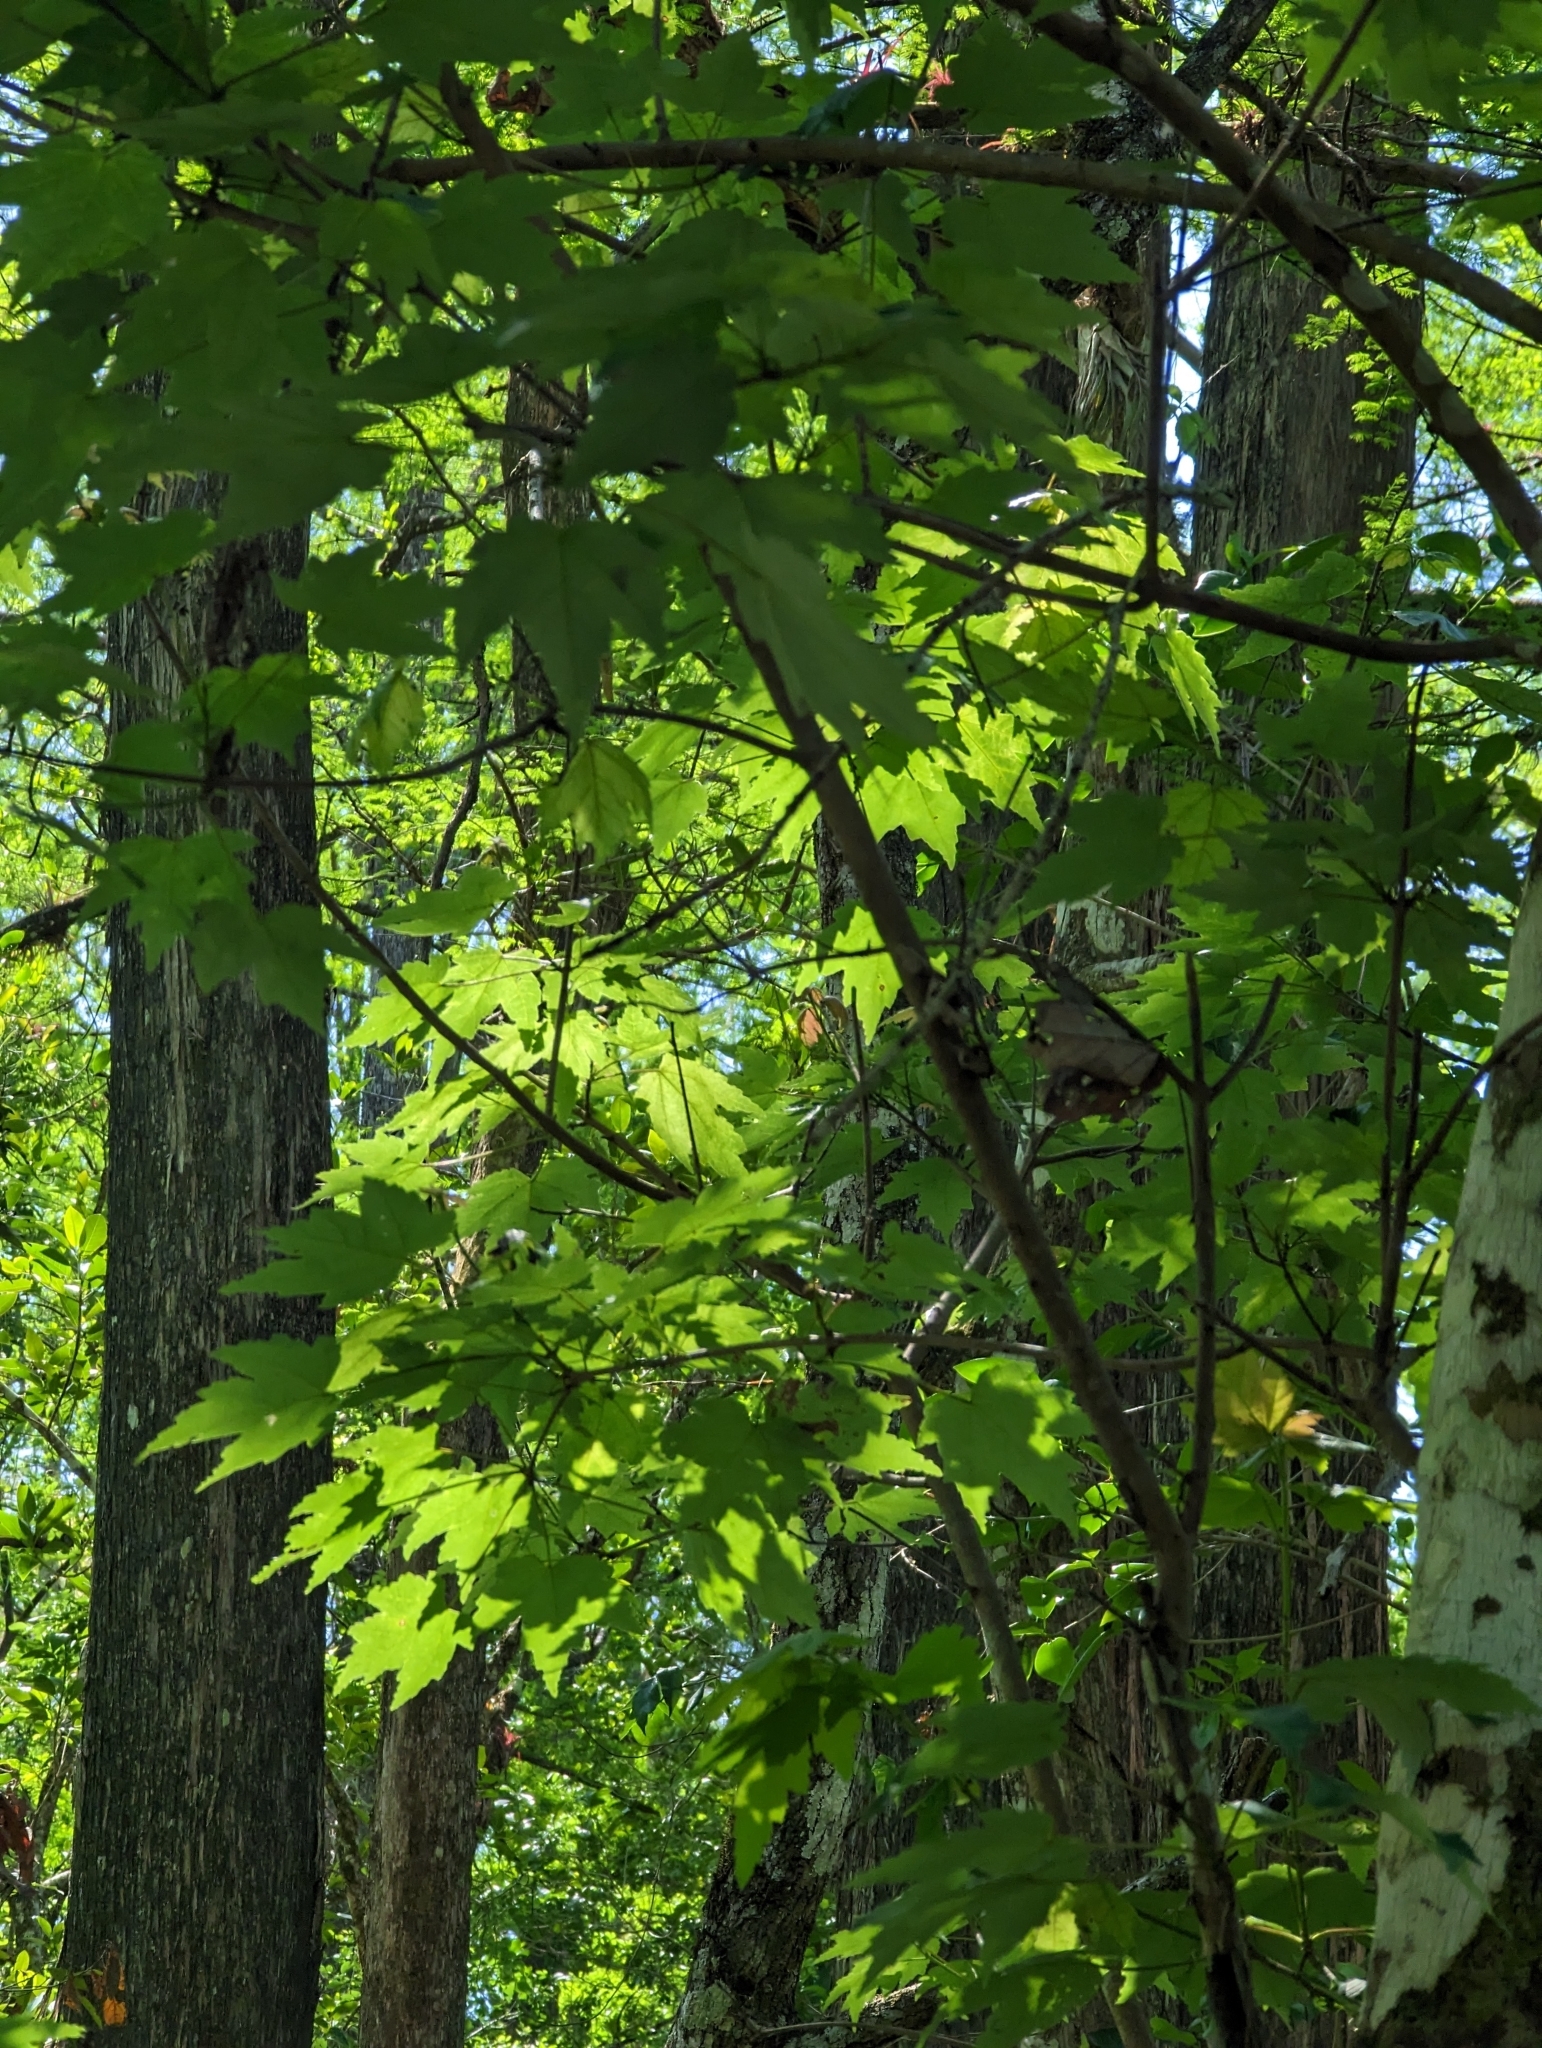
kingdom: Plantae
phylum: Tracheophyta
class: Magnoliopsida
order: Sapindales
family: Sapindaceae
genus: Acer
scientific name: Acer rubrum
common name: Red maple
